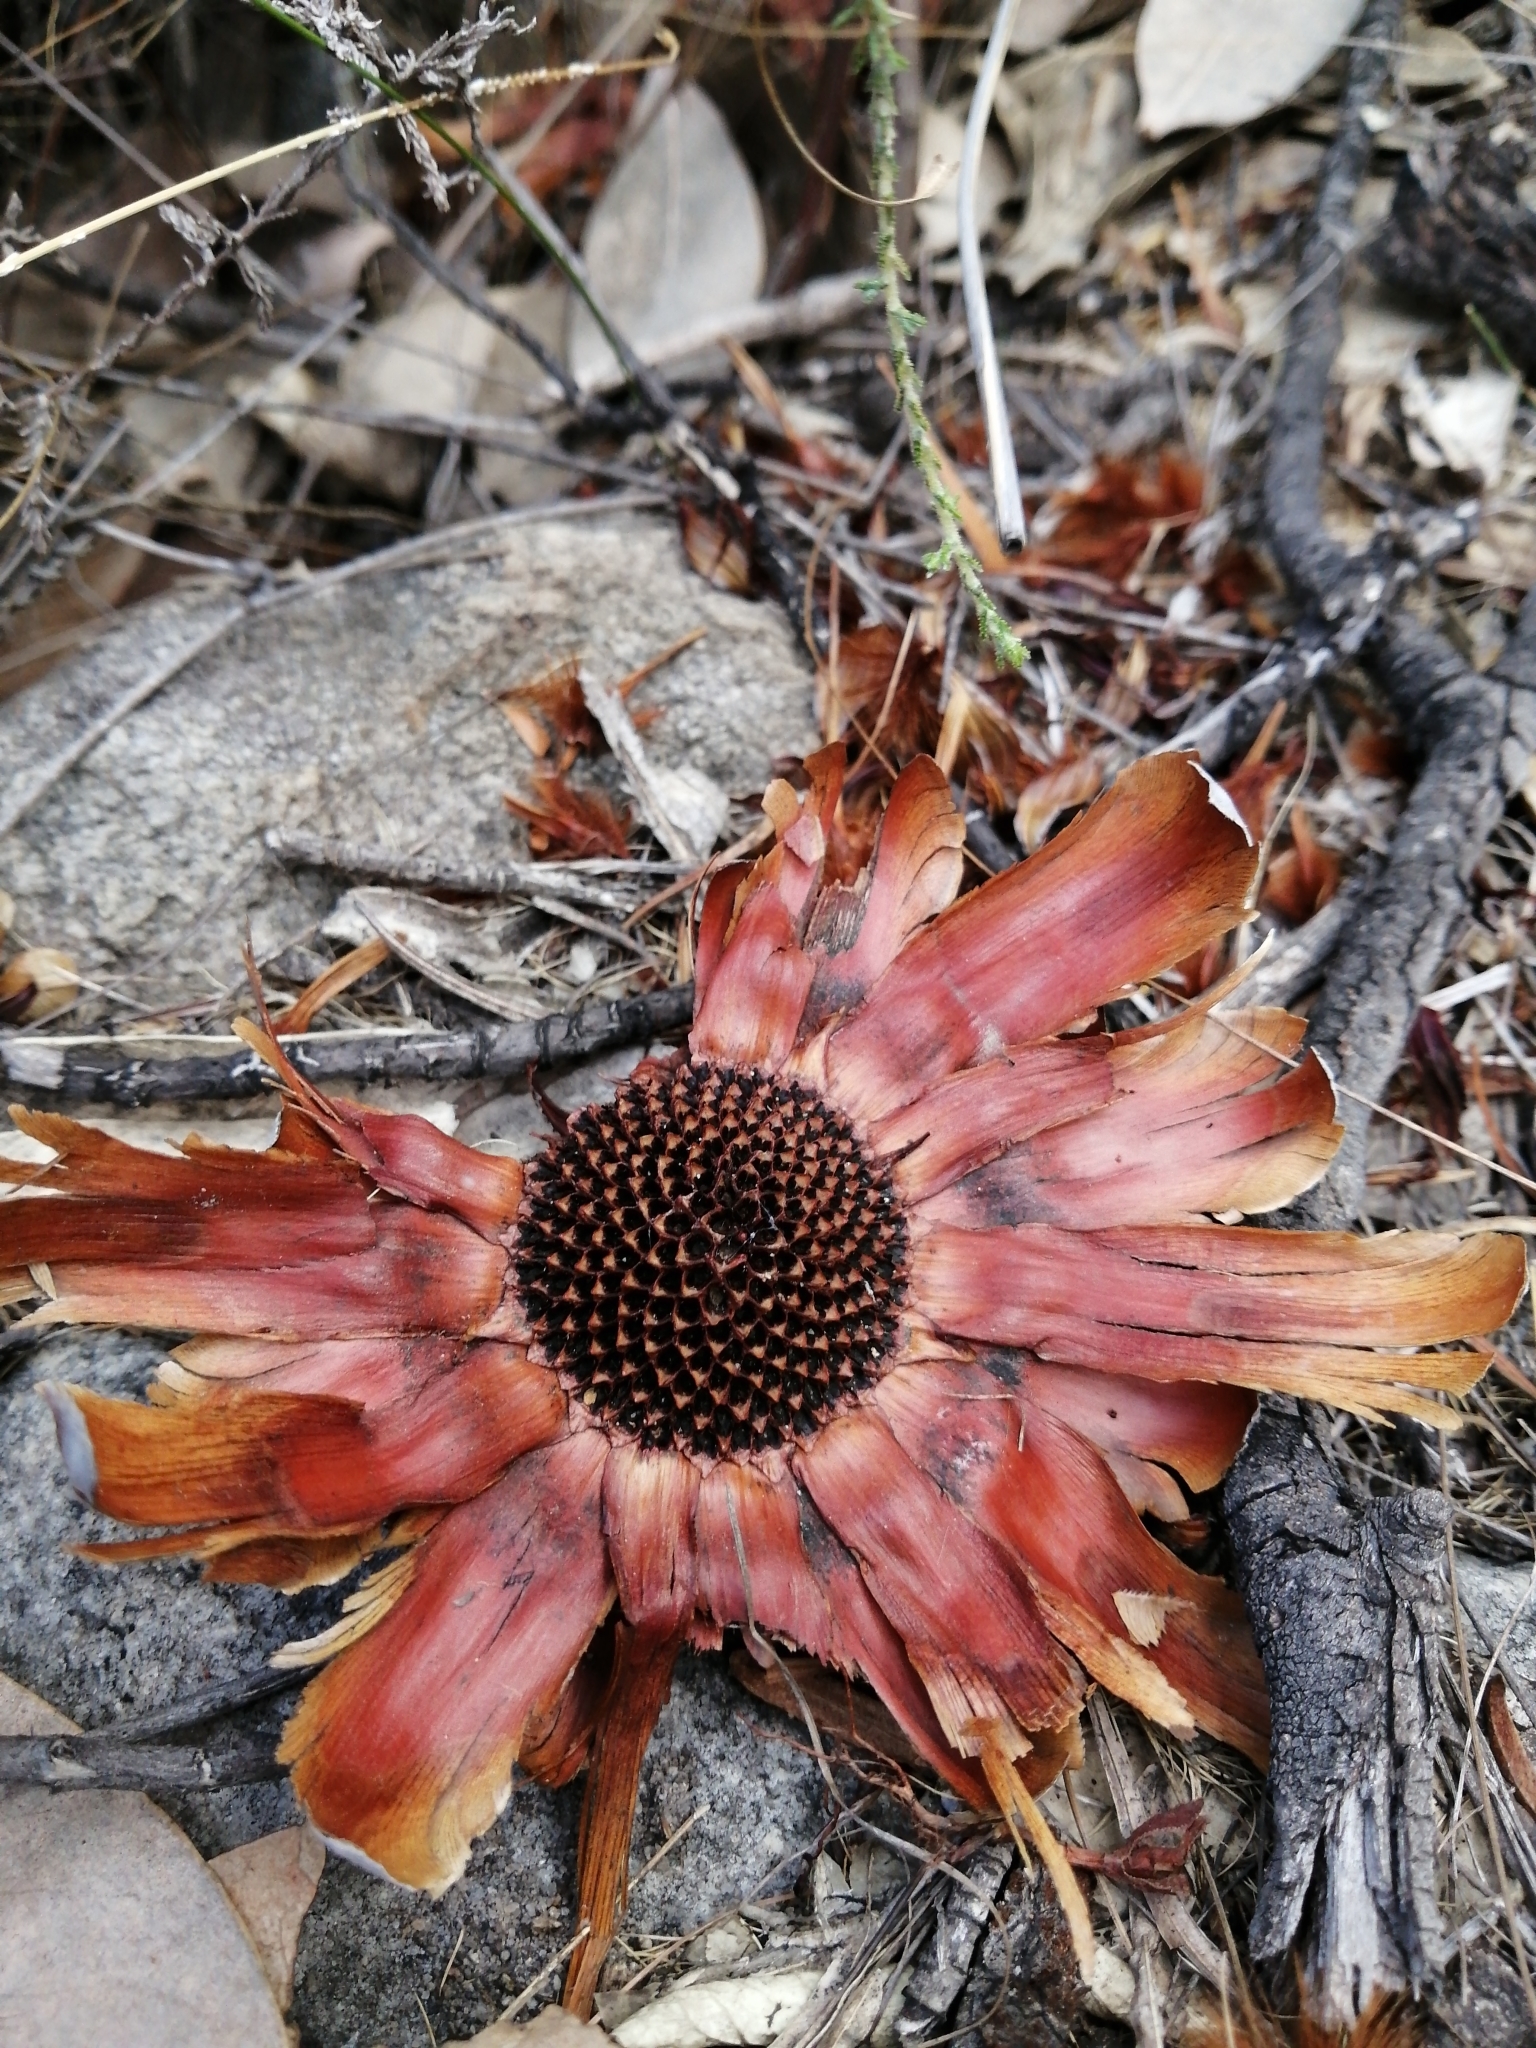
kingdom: Plantae
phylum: Tracheophyta
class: Magnoliopsida
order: Proteales
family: Proteaceae
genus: Protea
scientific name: Protea nitida
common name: Tree protea
